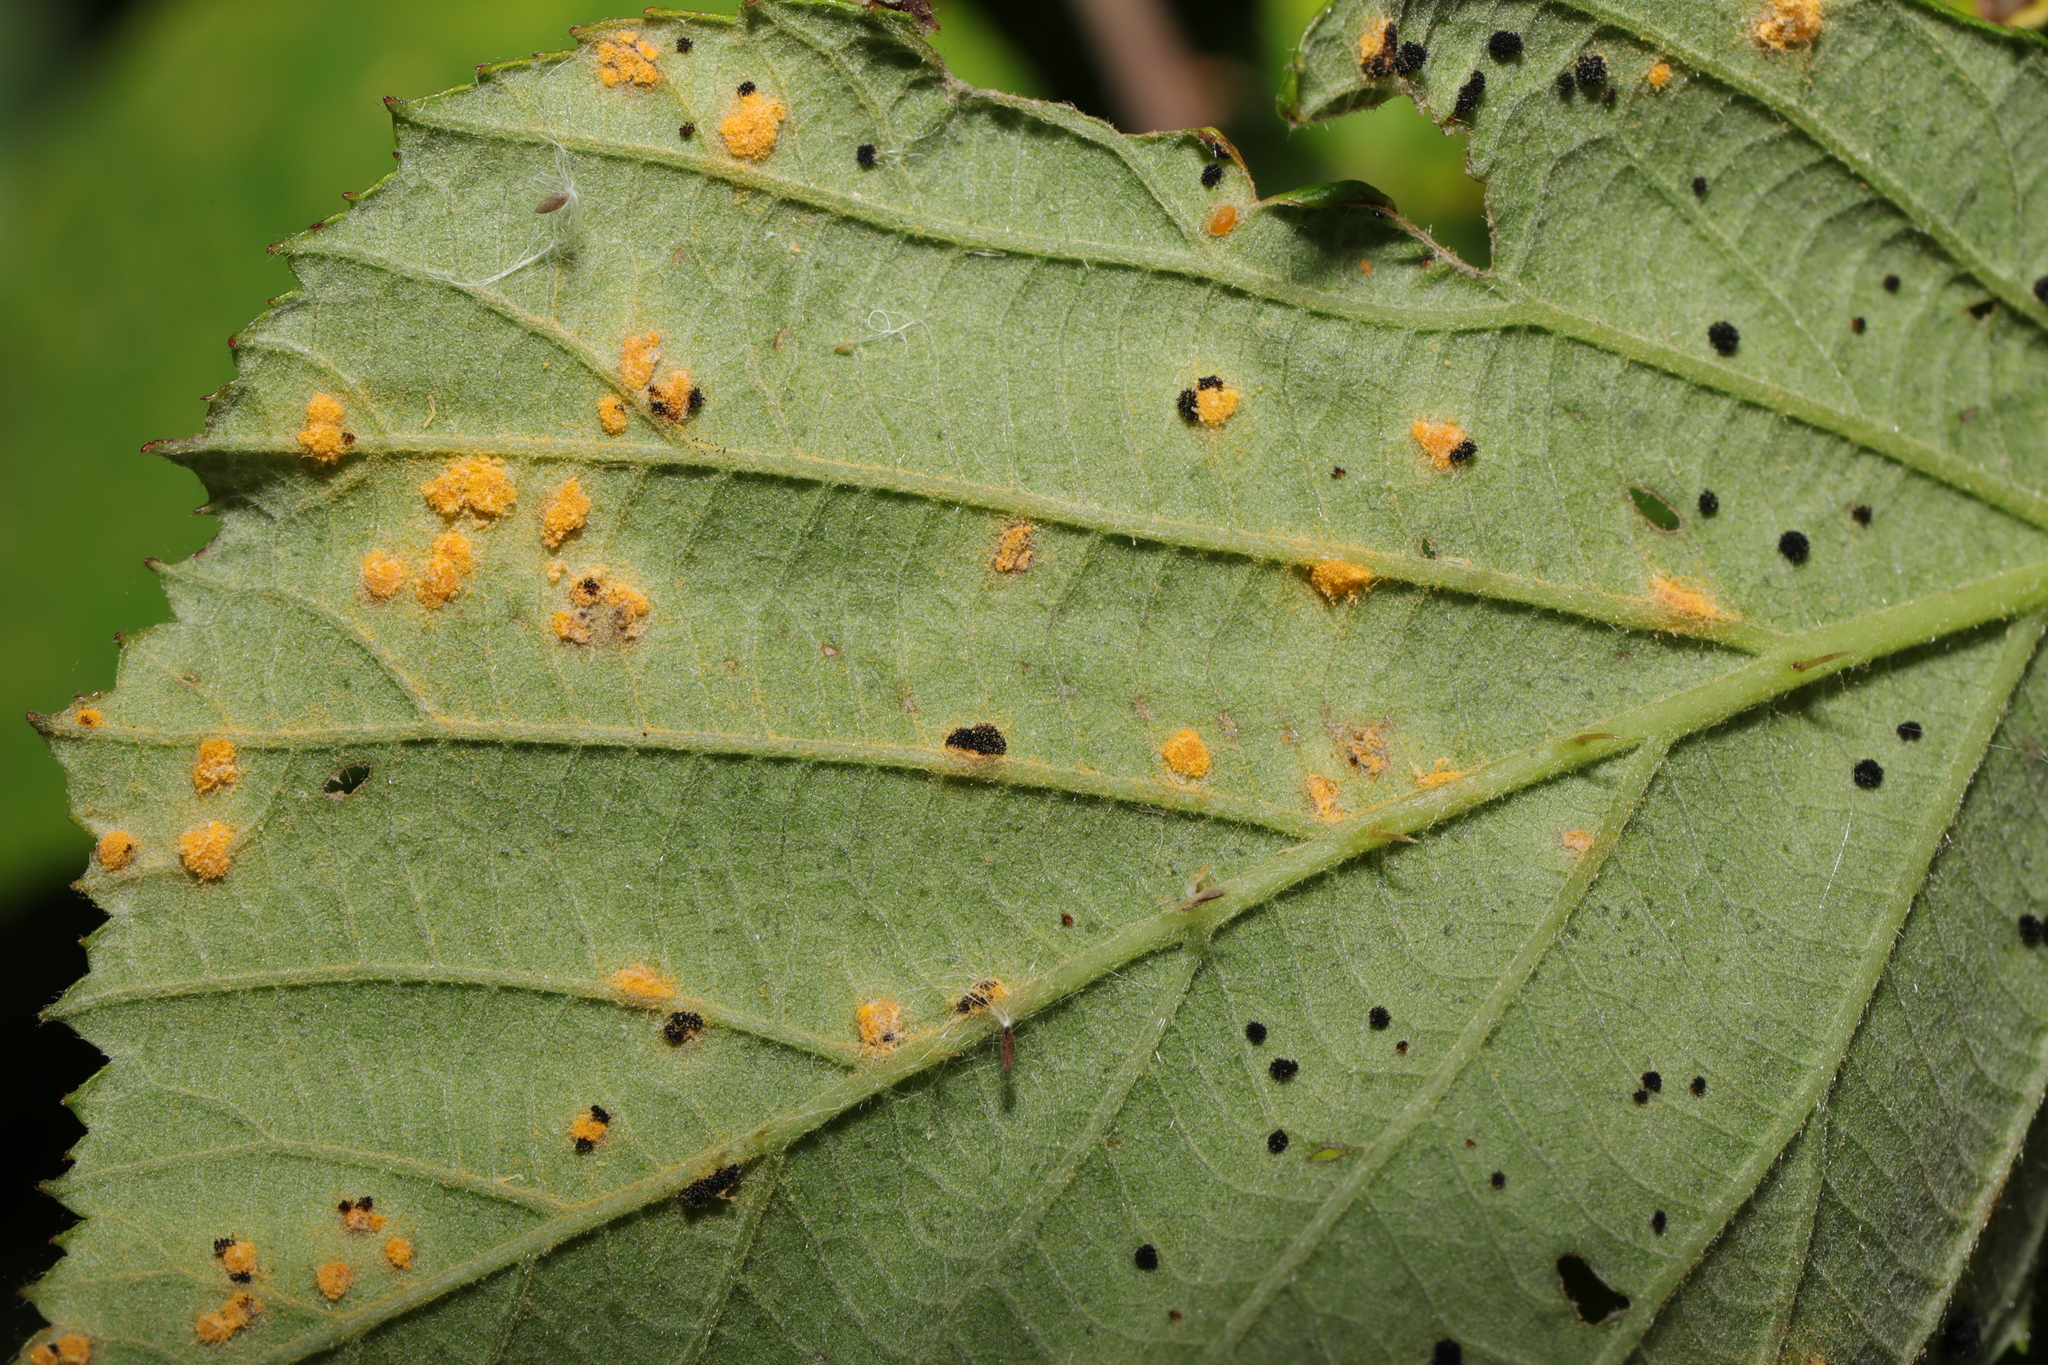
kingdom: Fungi
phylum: Basidiomycota
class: Pucciniomycetes
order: Pucciniales
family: Phragmidiaceae
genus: Phragmidium
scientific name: Phragmidium violaceum
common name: Violet bramble rust
